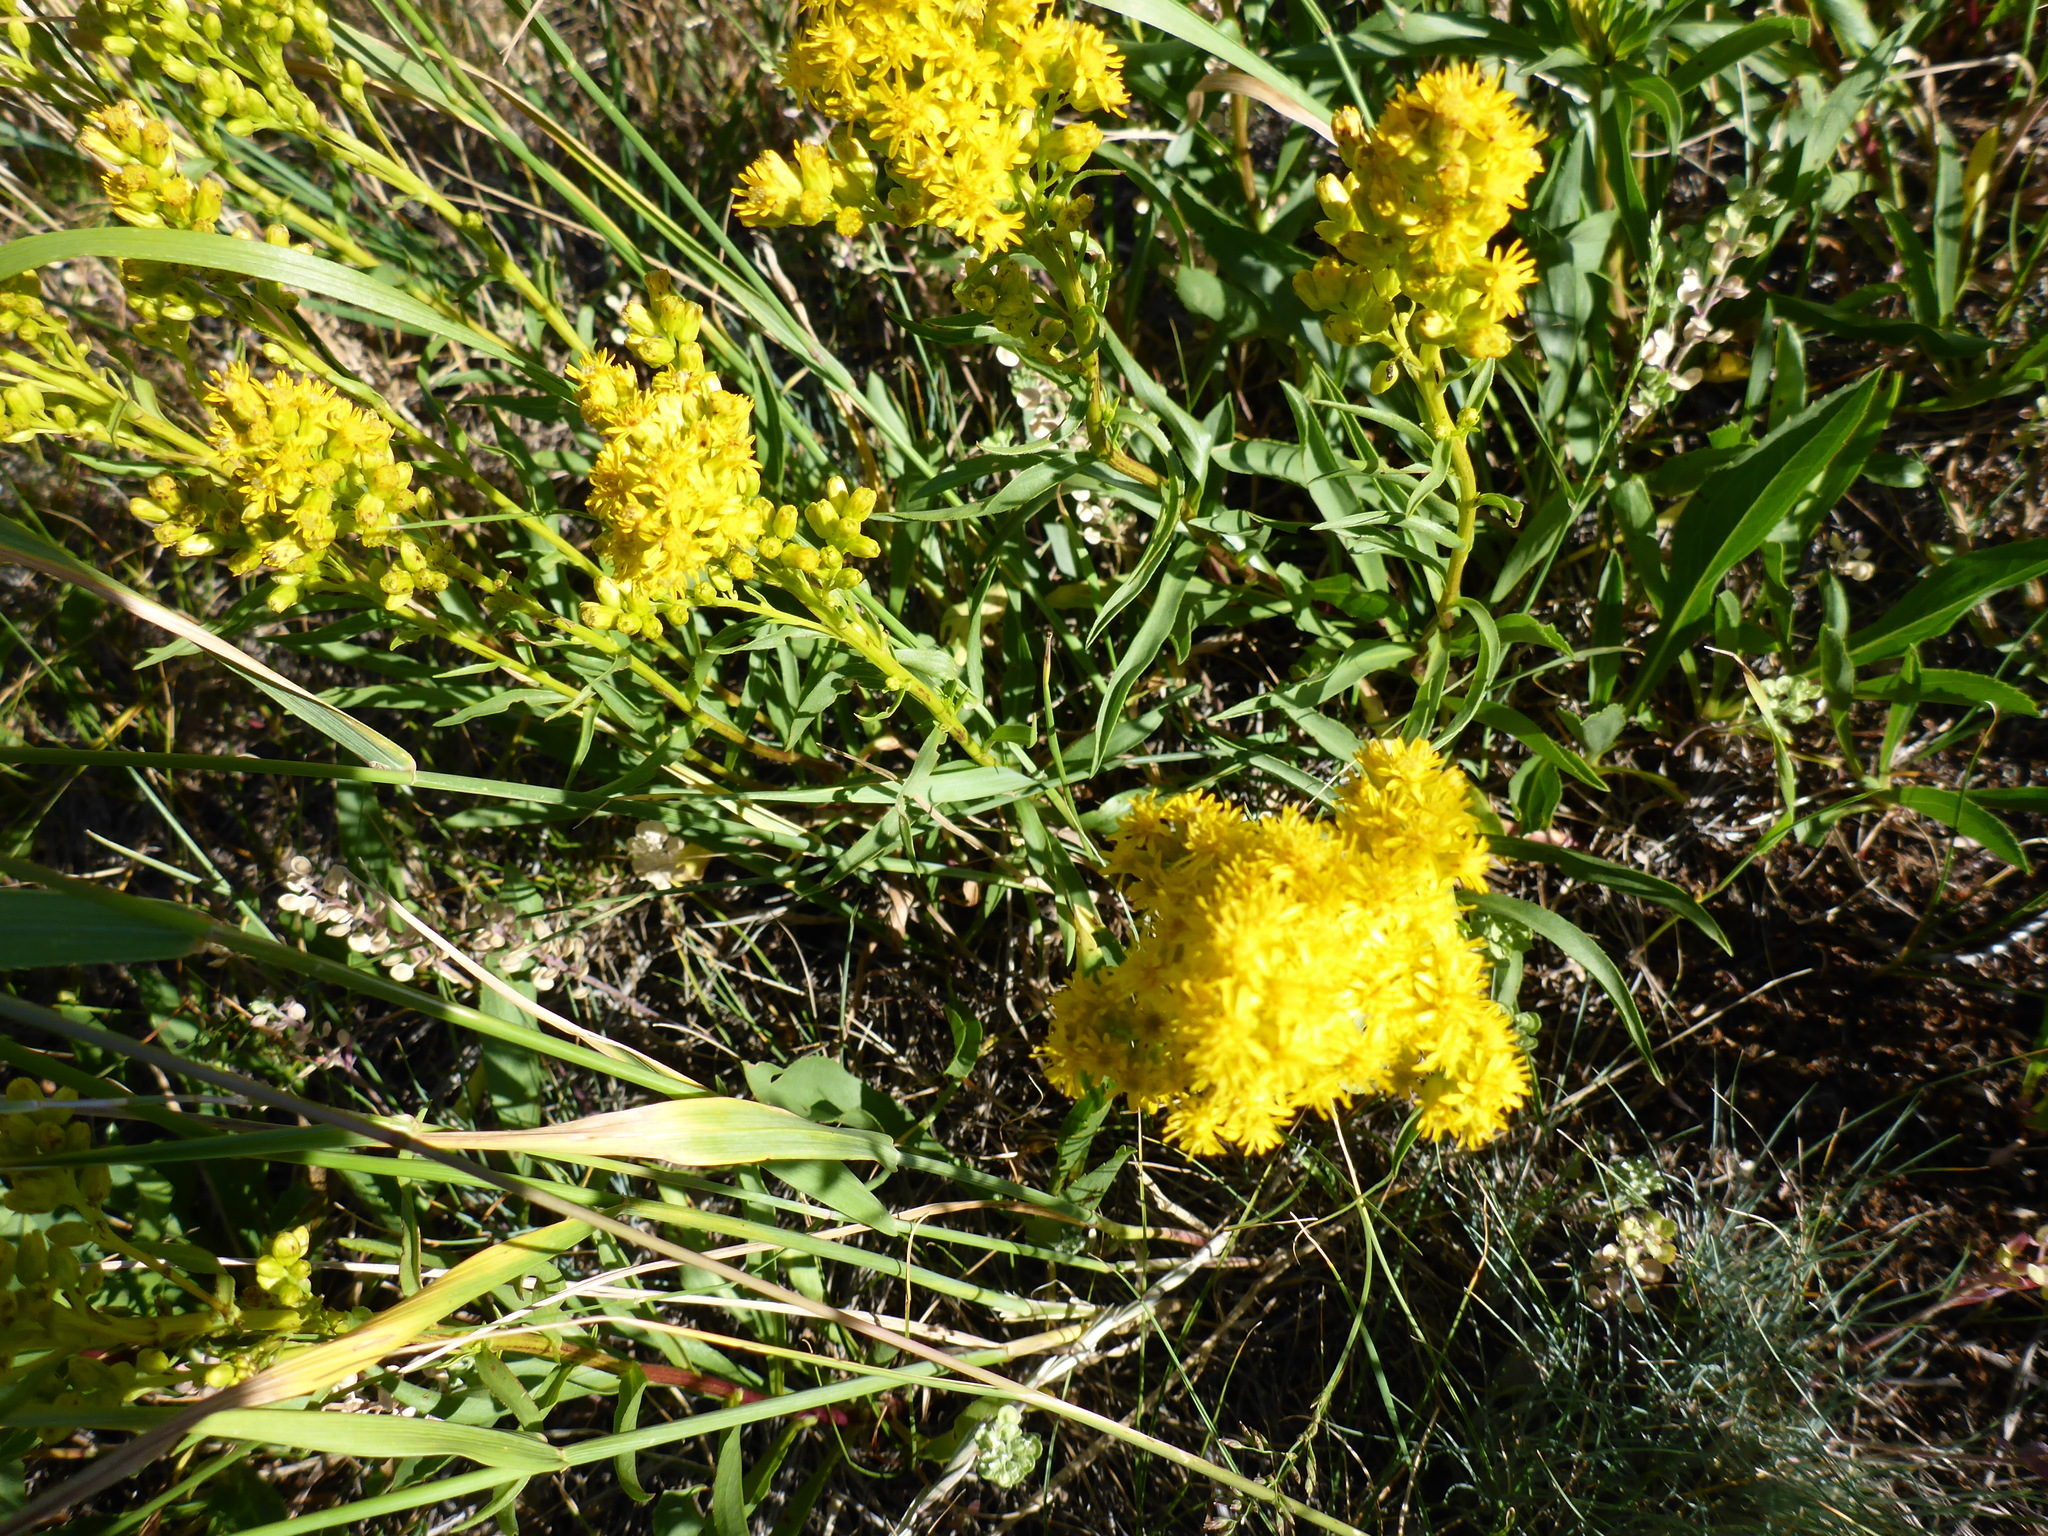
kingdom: Plantae
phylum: Tracheophyta
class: Magnoliopsida
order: Asterales
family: Asteraceae
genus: Solidago
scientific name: Solidago missouriensis
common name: Prairie goldenrod
